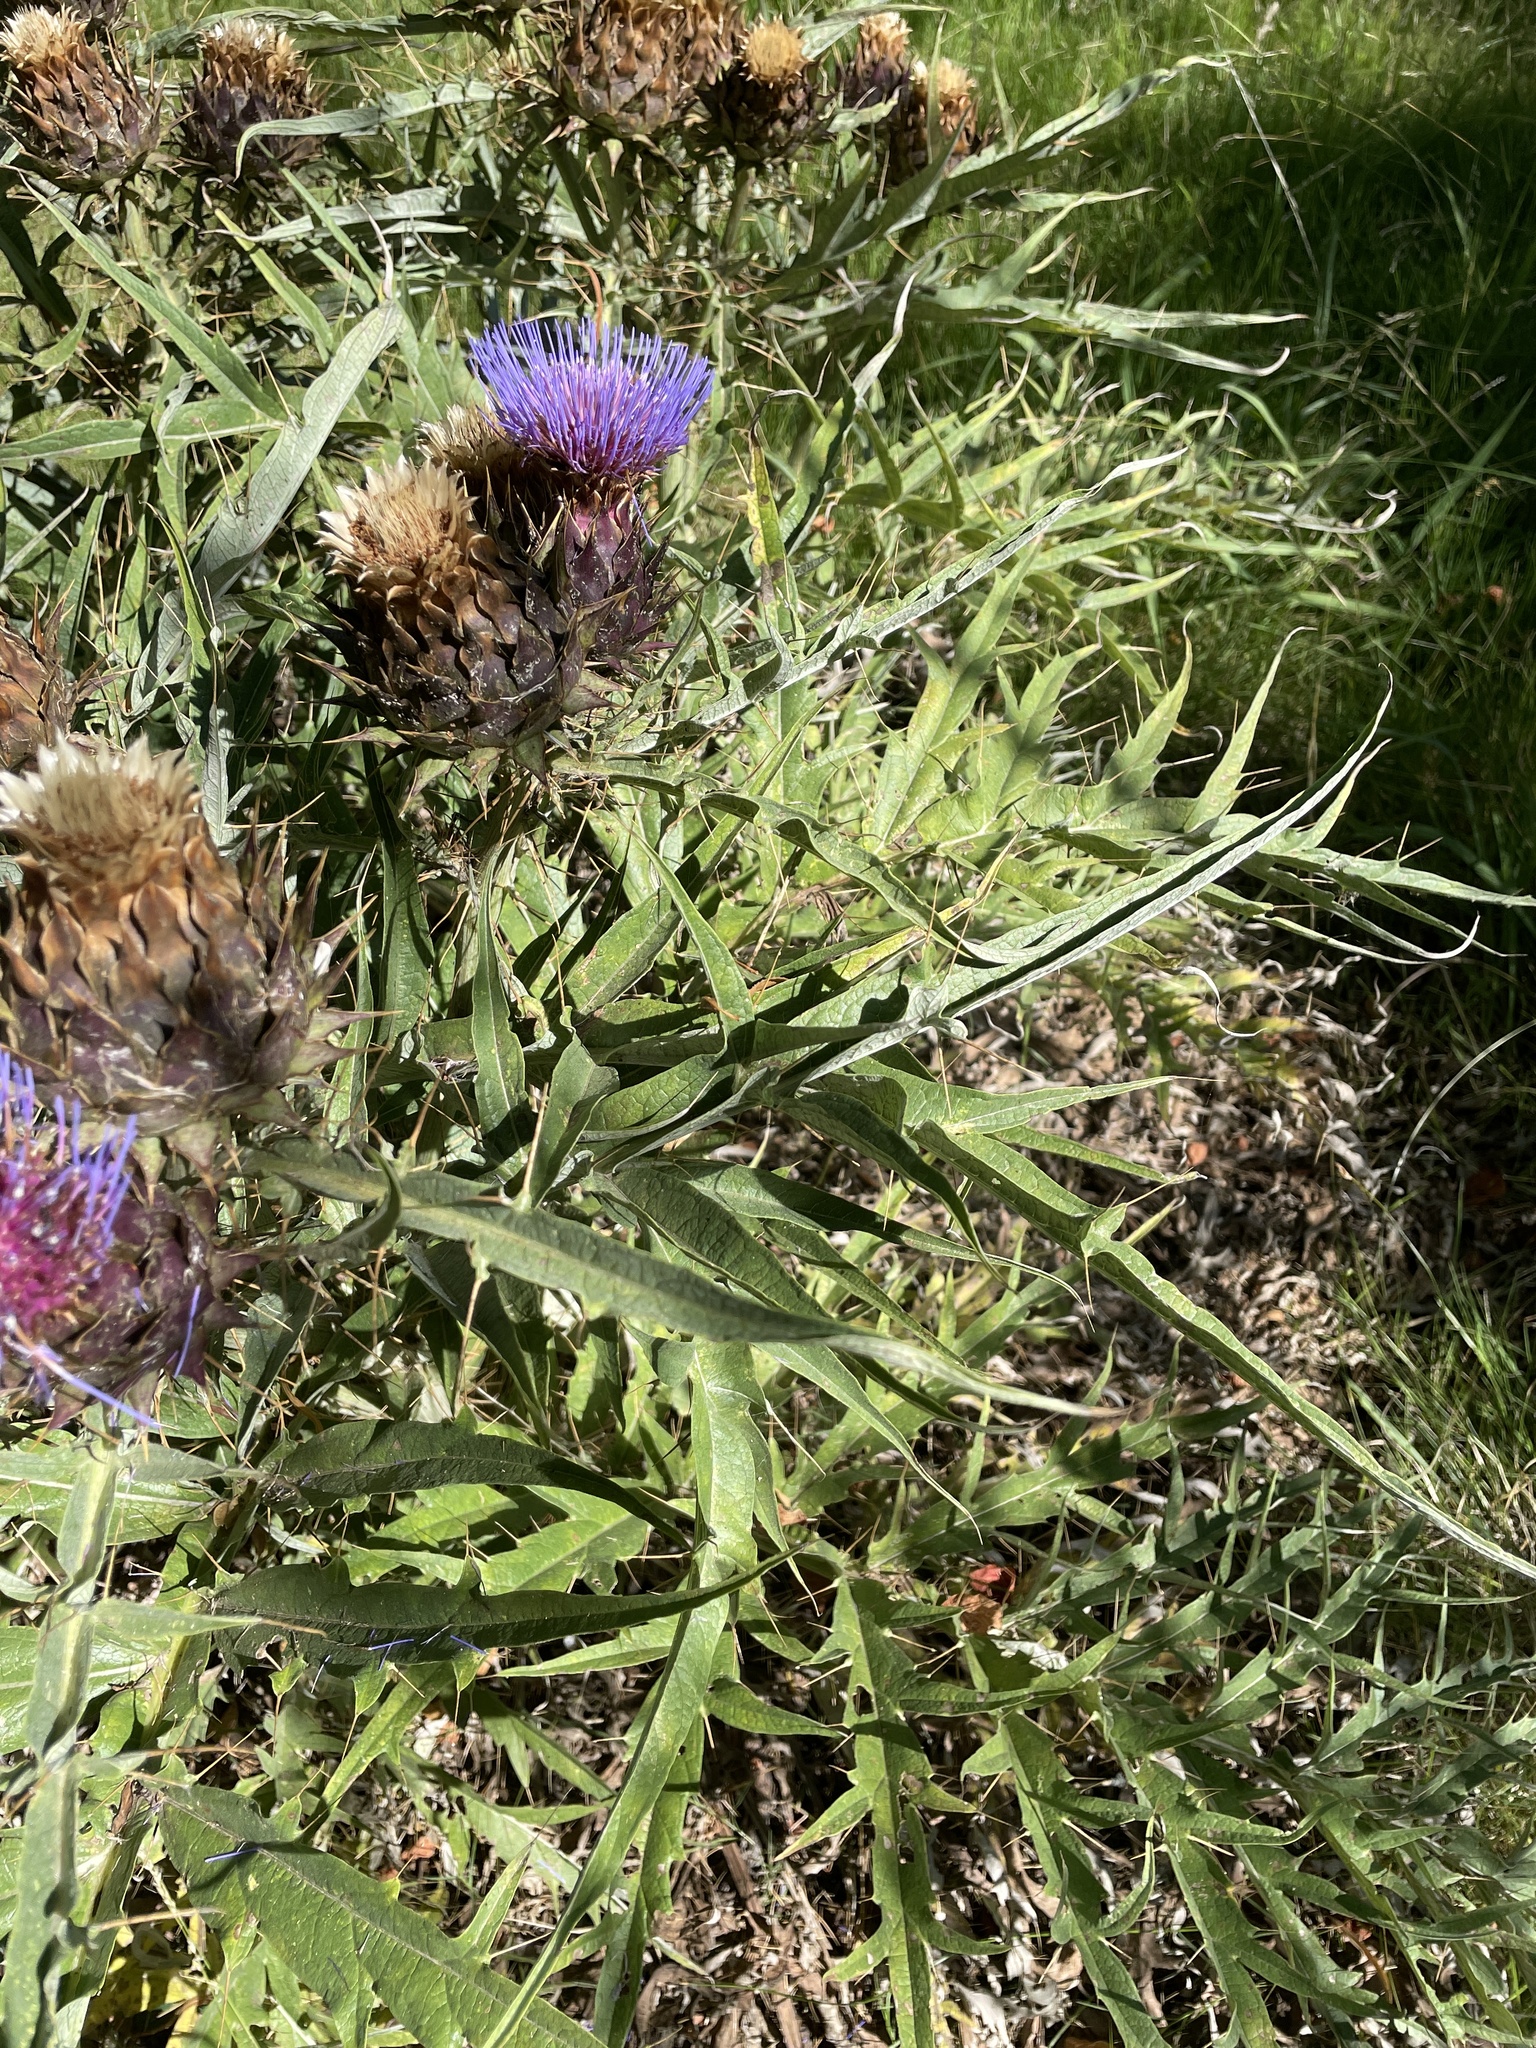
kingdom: Plantae
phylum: Tracheophyta
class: Magnoliopsida
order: Asterales
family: Asteraceae
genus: Cynara
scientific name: Cynara cardunculus
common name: Globe artichoke
